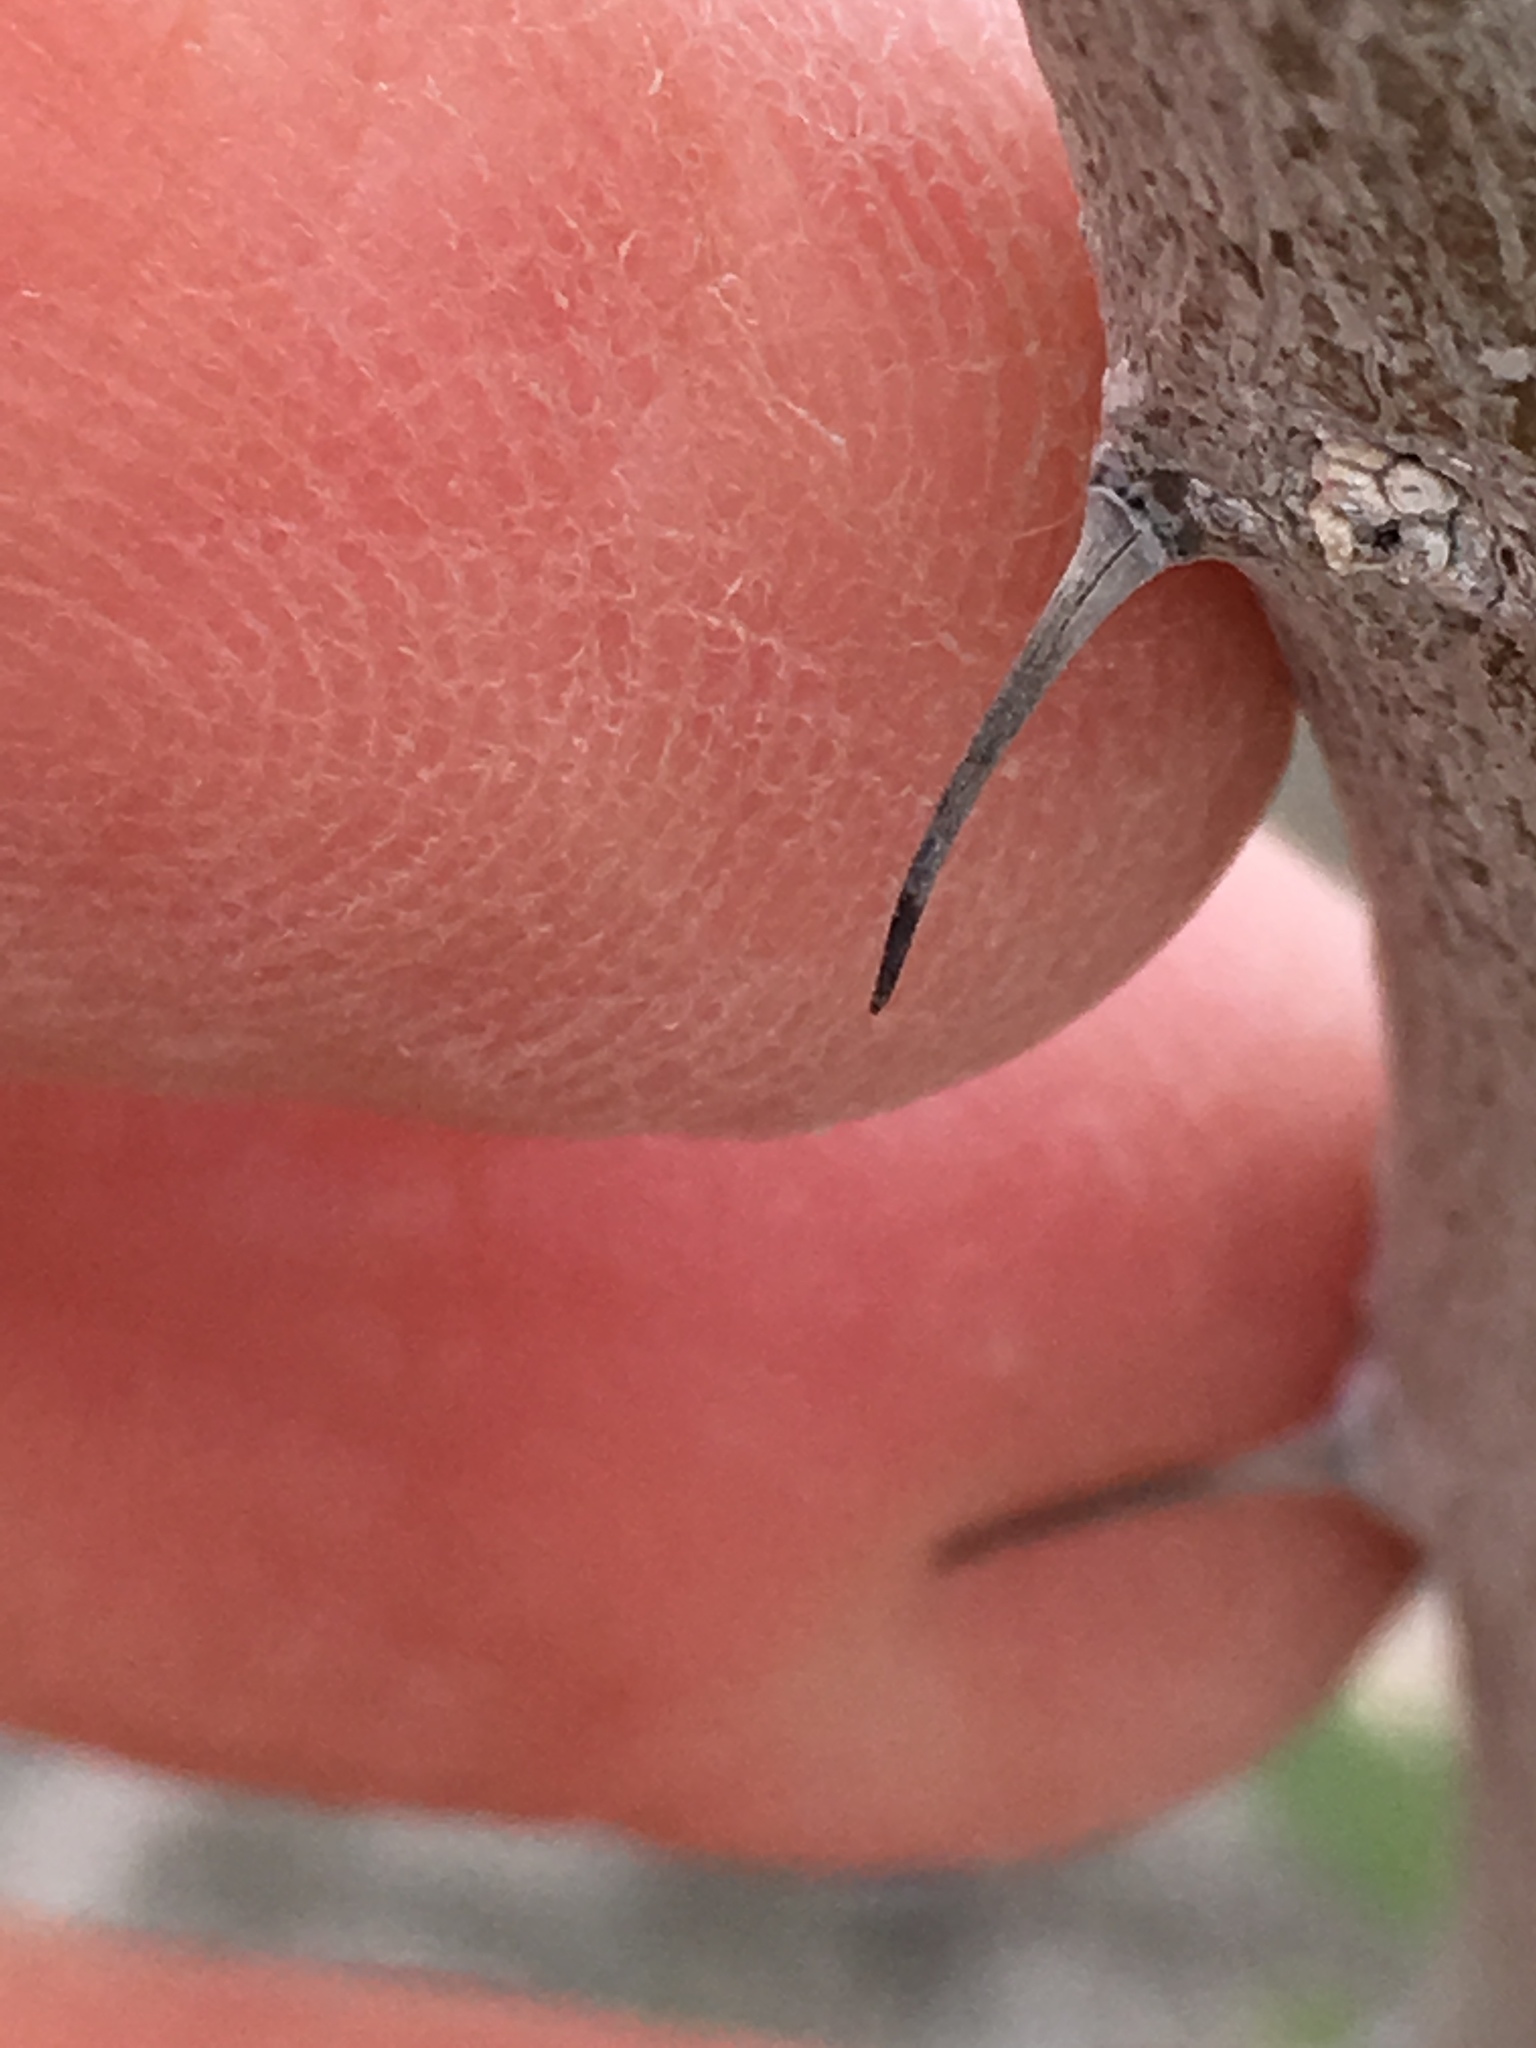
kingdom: Plantae
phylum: Tracheophyta
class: Magnoliopsida
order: Fabales
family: Fabaceae
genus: Olneya
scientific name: Olneya tesota
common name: Desert ironwood
